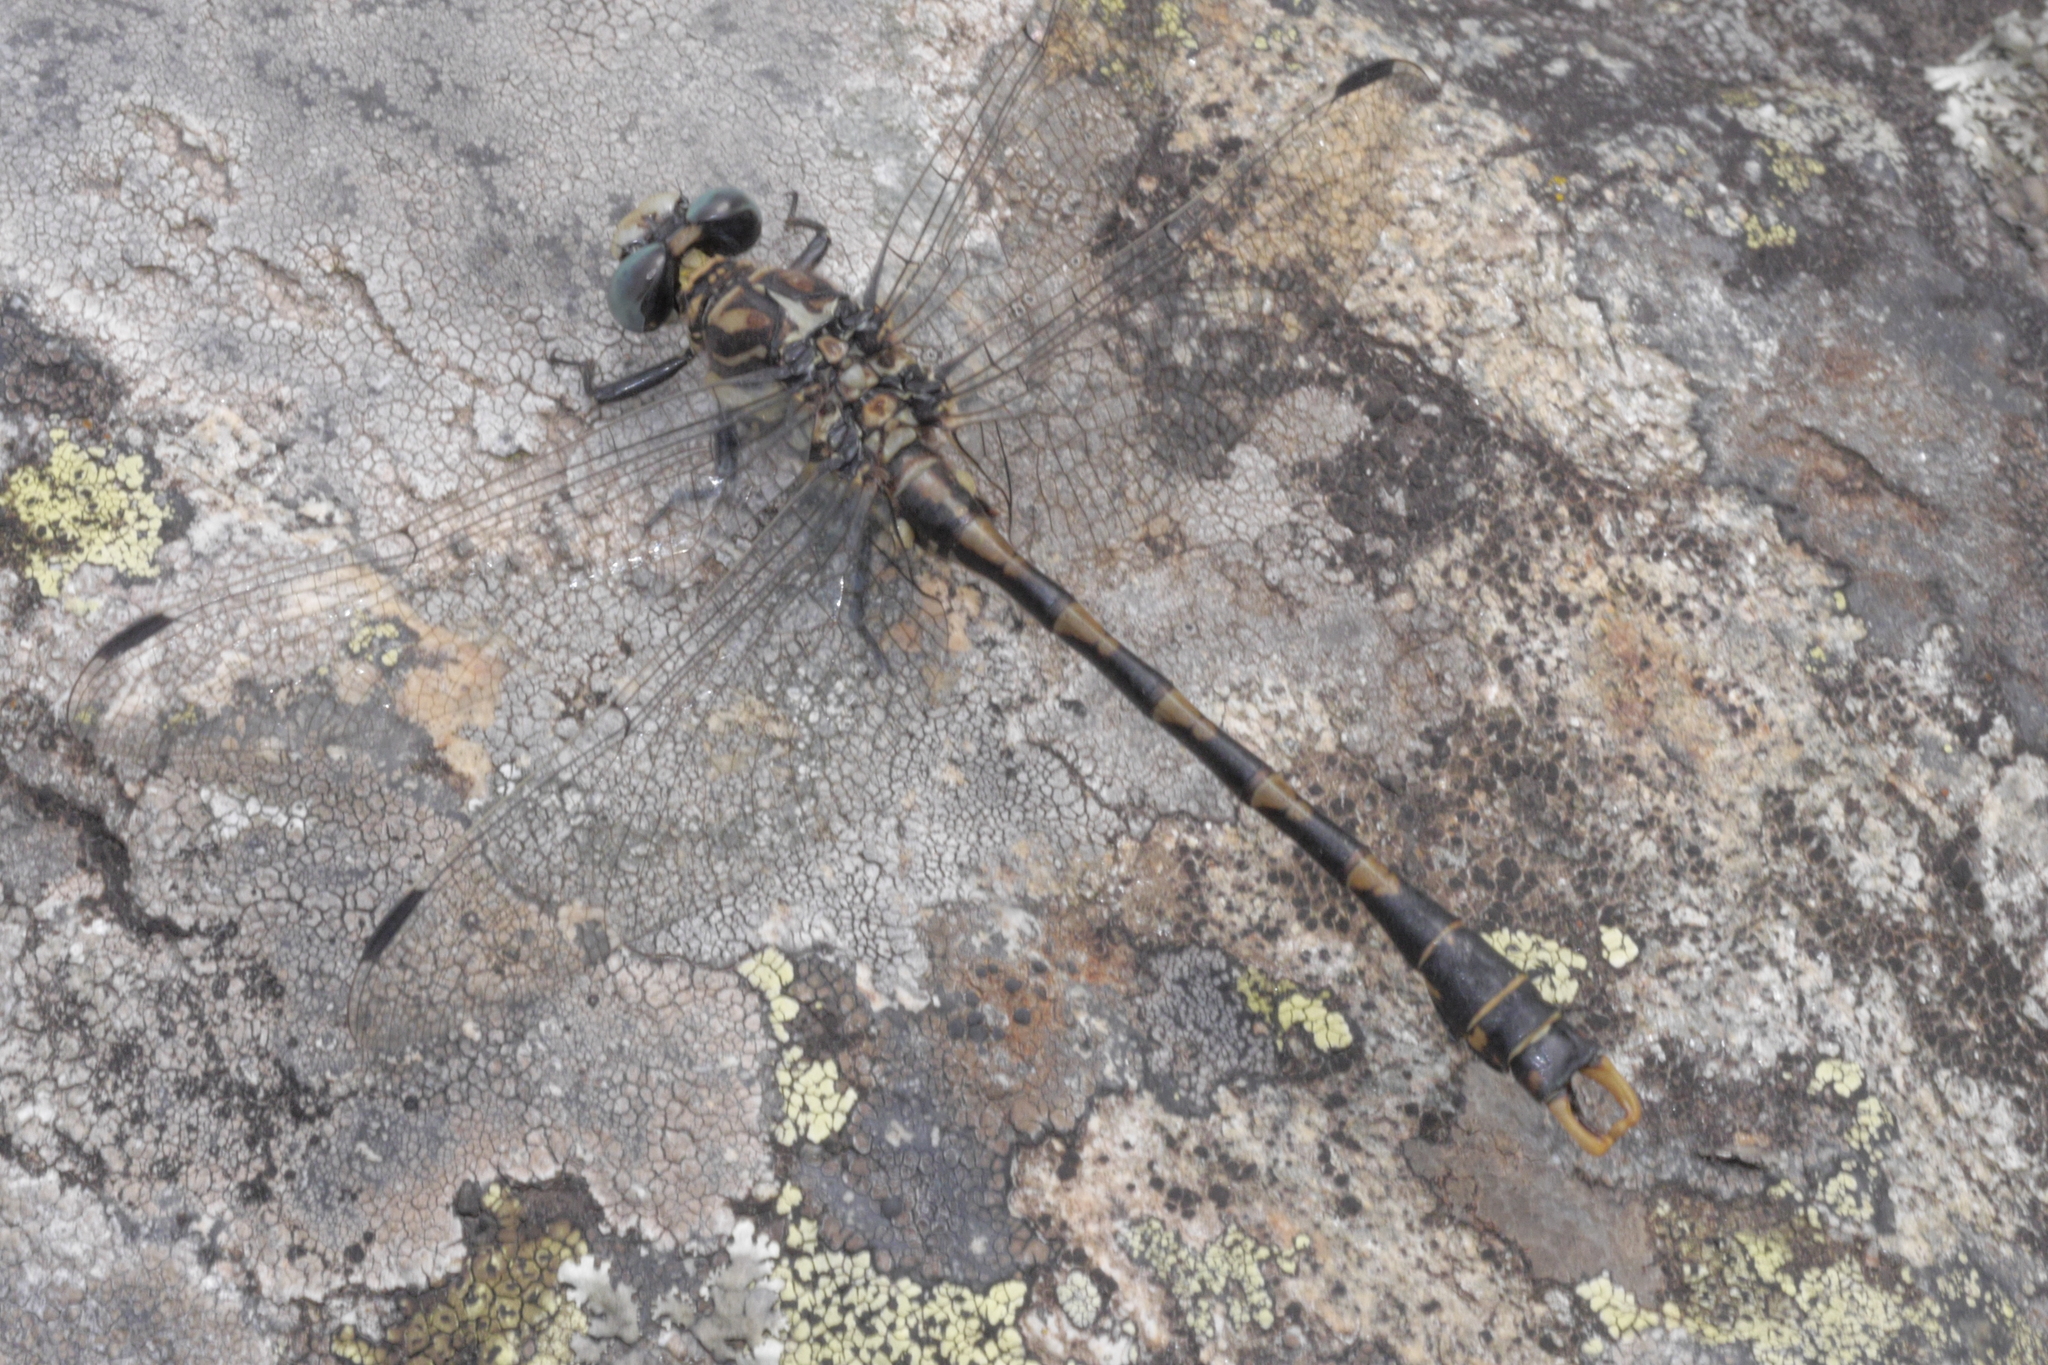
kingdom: Animalia
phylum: Arthropoda
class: Insecta
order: Odonata
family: Gomphidae
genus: Onychogomphus
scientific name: Onychogomphus uncatus
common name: Large pincertail
